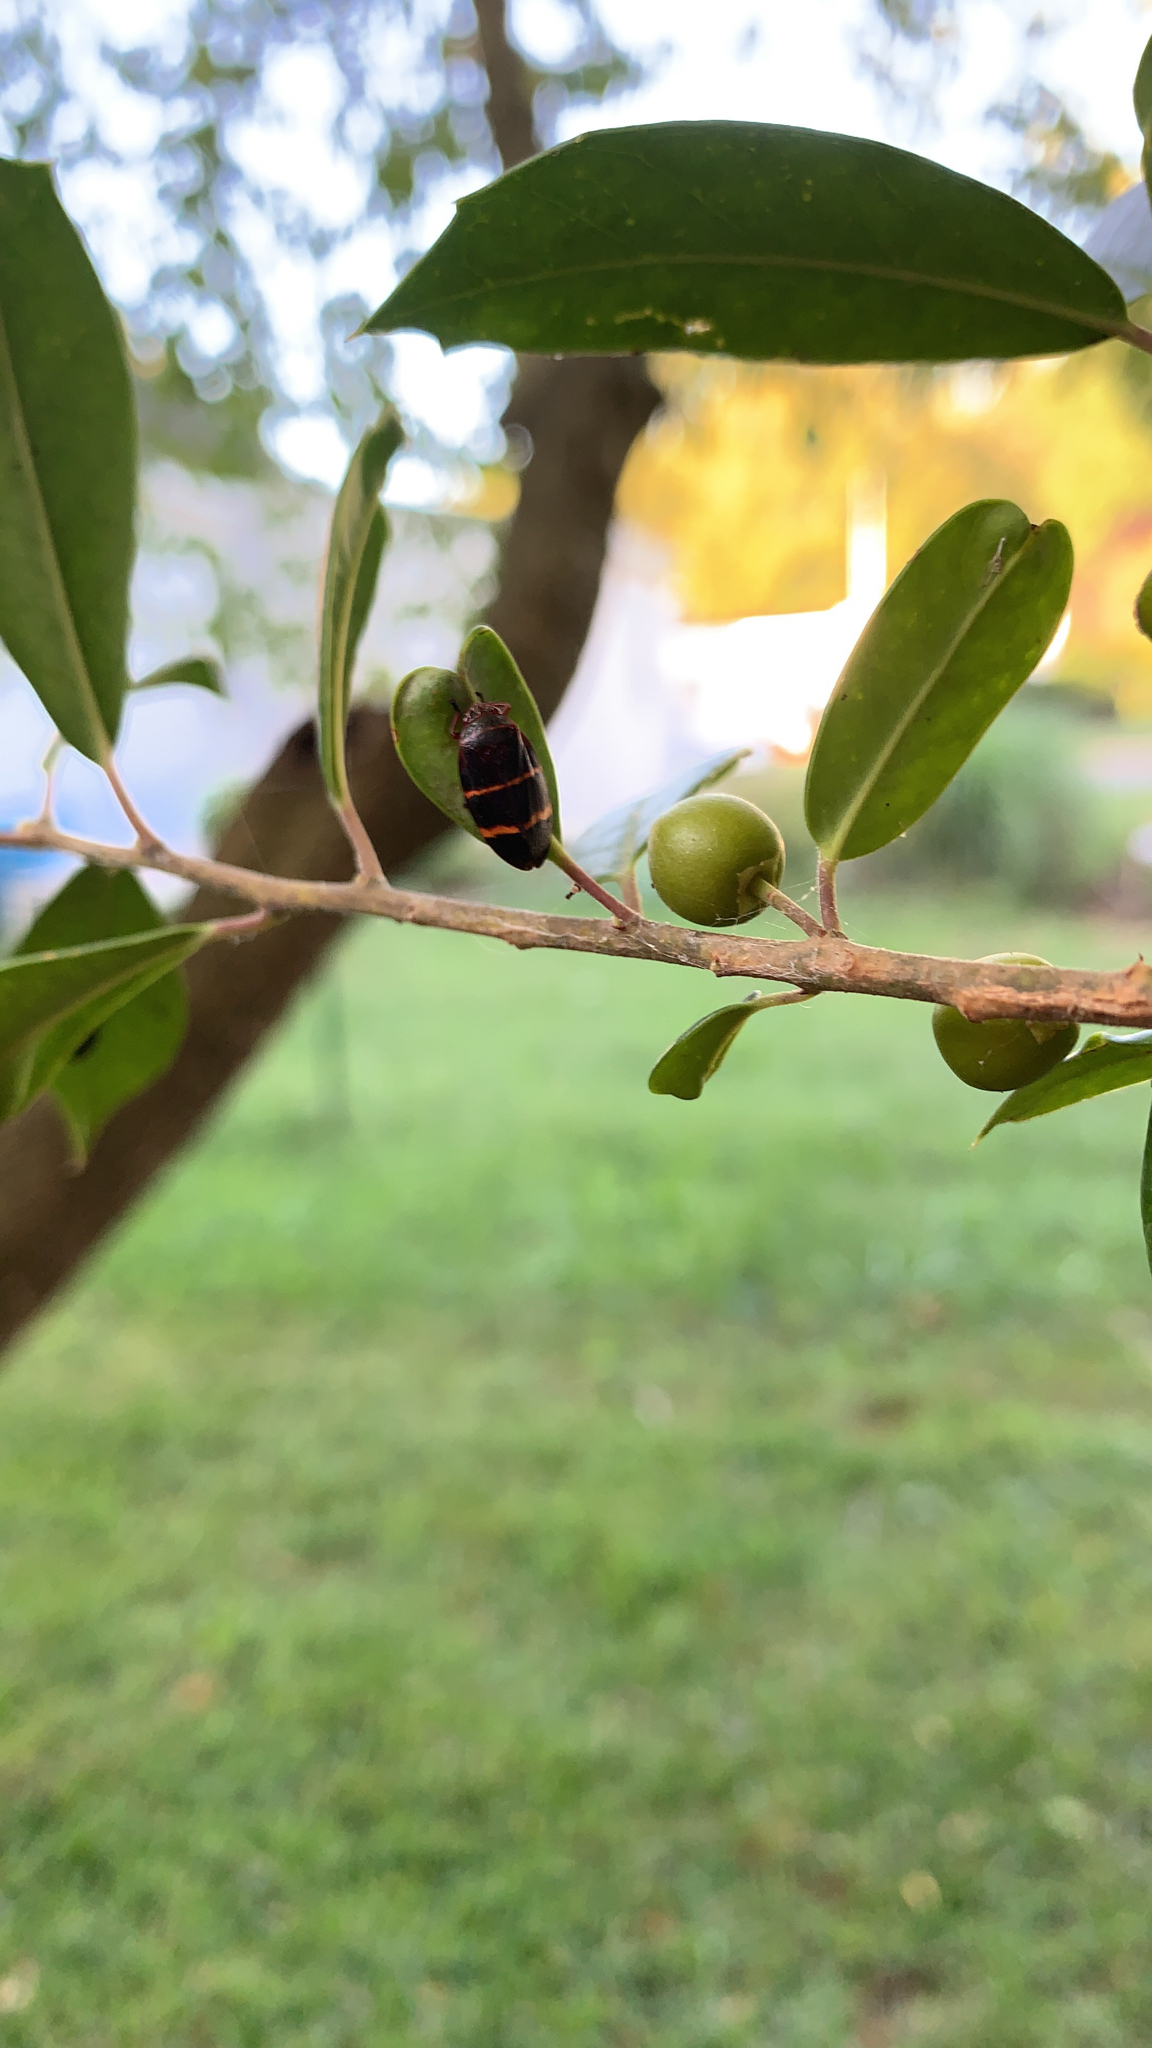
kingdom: Animalia
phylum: Arthropoda
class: Insecta
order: Hemiptera
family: Cercopidae
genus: Prosapia
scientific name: Prosapia bicincta
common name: Twolined spittlebug
